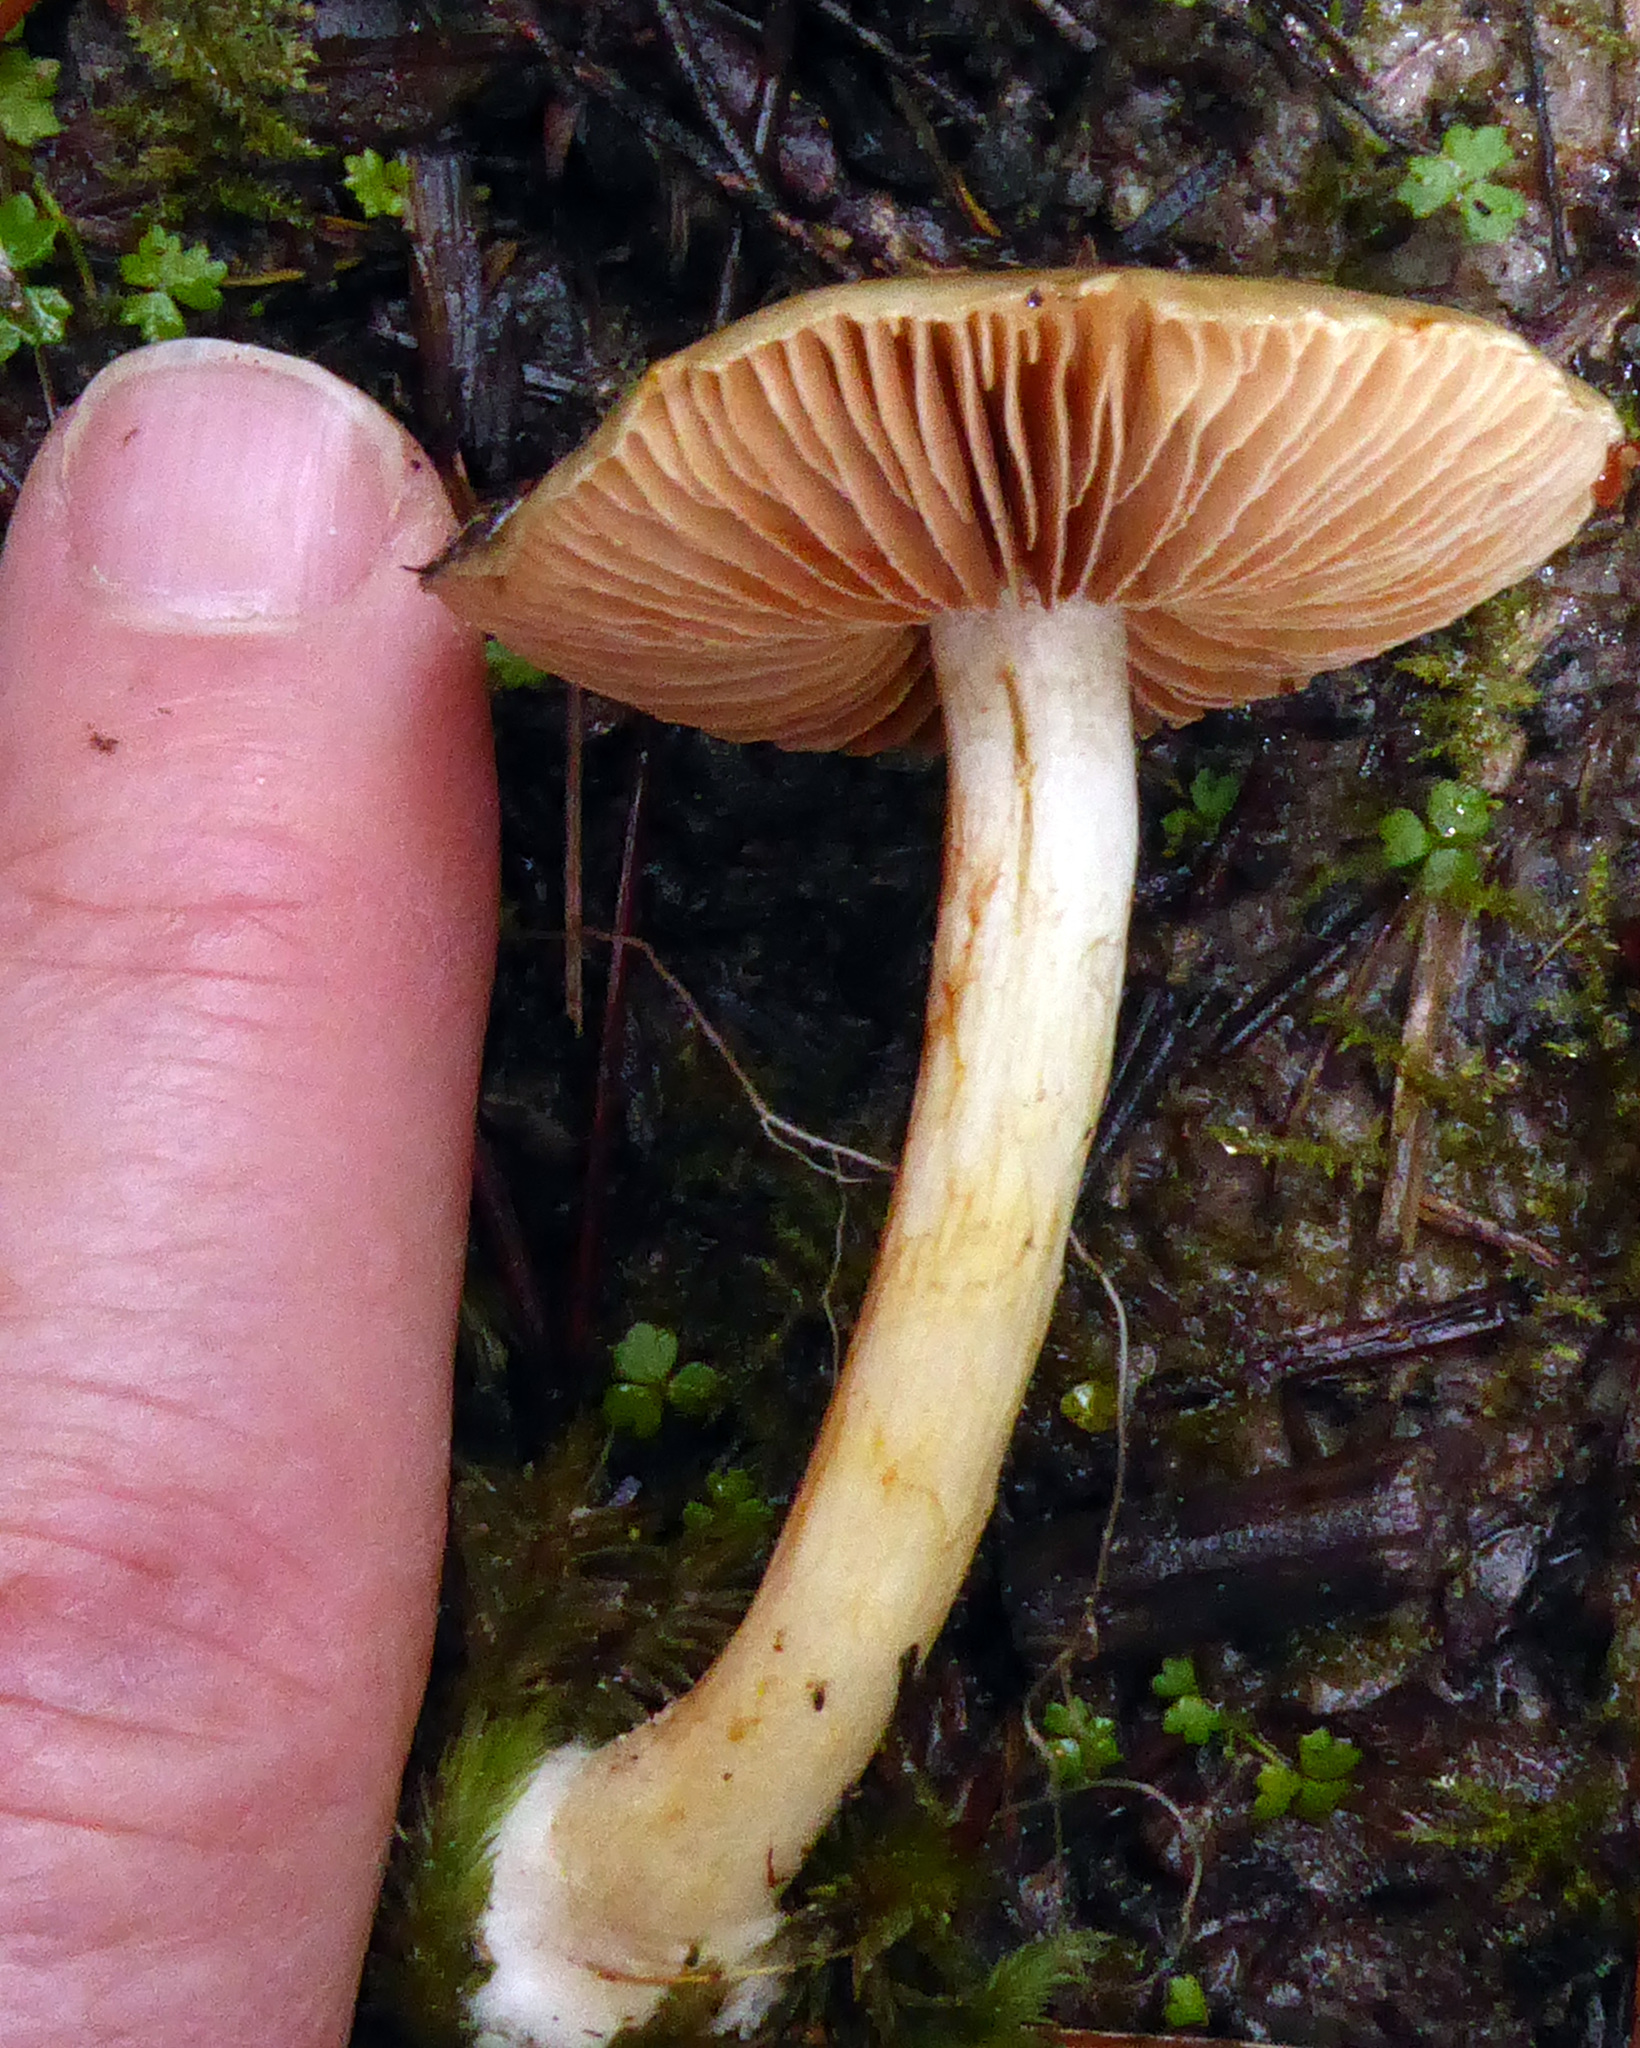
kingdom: Fungi
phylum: Basidiomycota
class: Agaricomycetes
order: Agaricales
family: Cortinariaceae
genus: Cortinarius
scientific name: Cortinarius calaisopus
